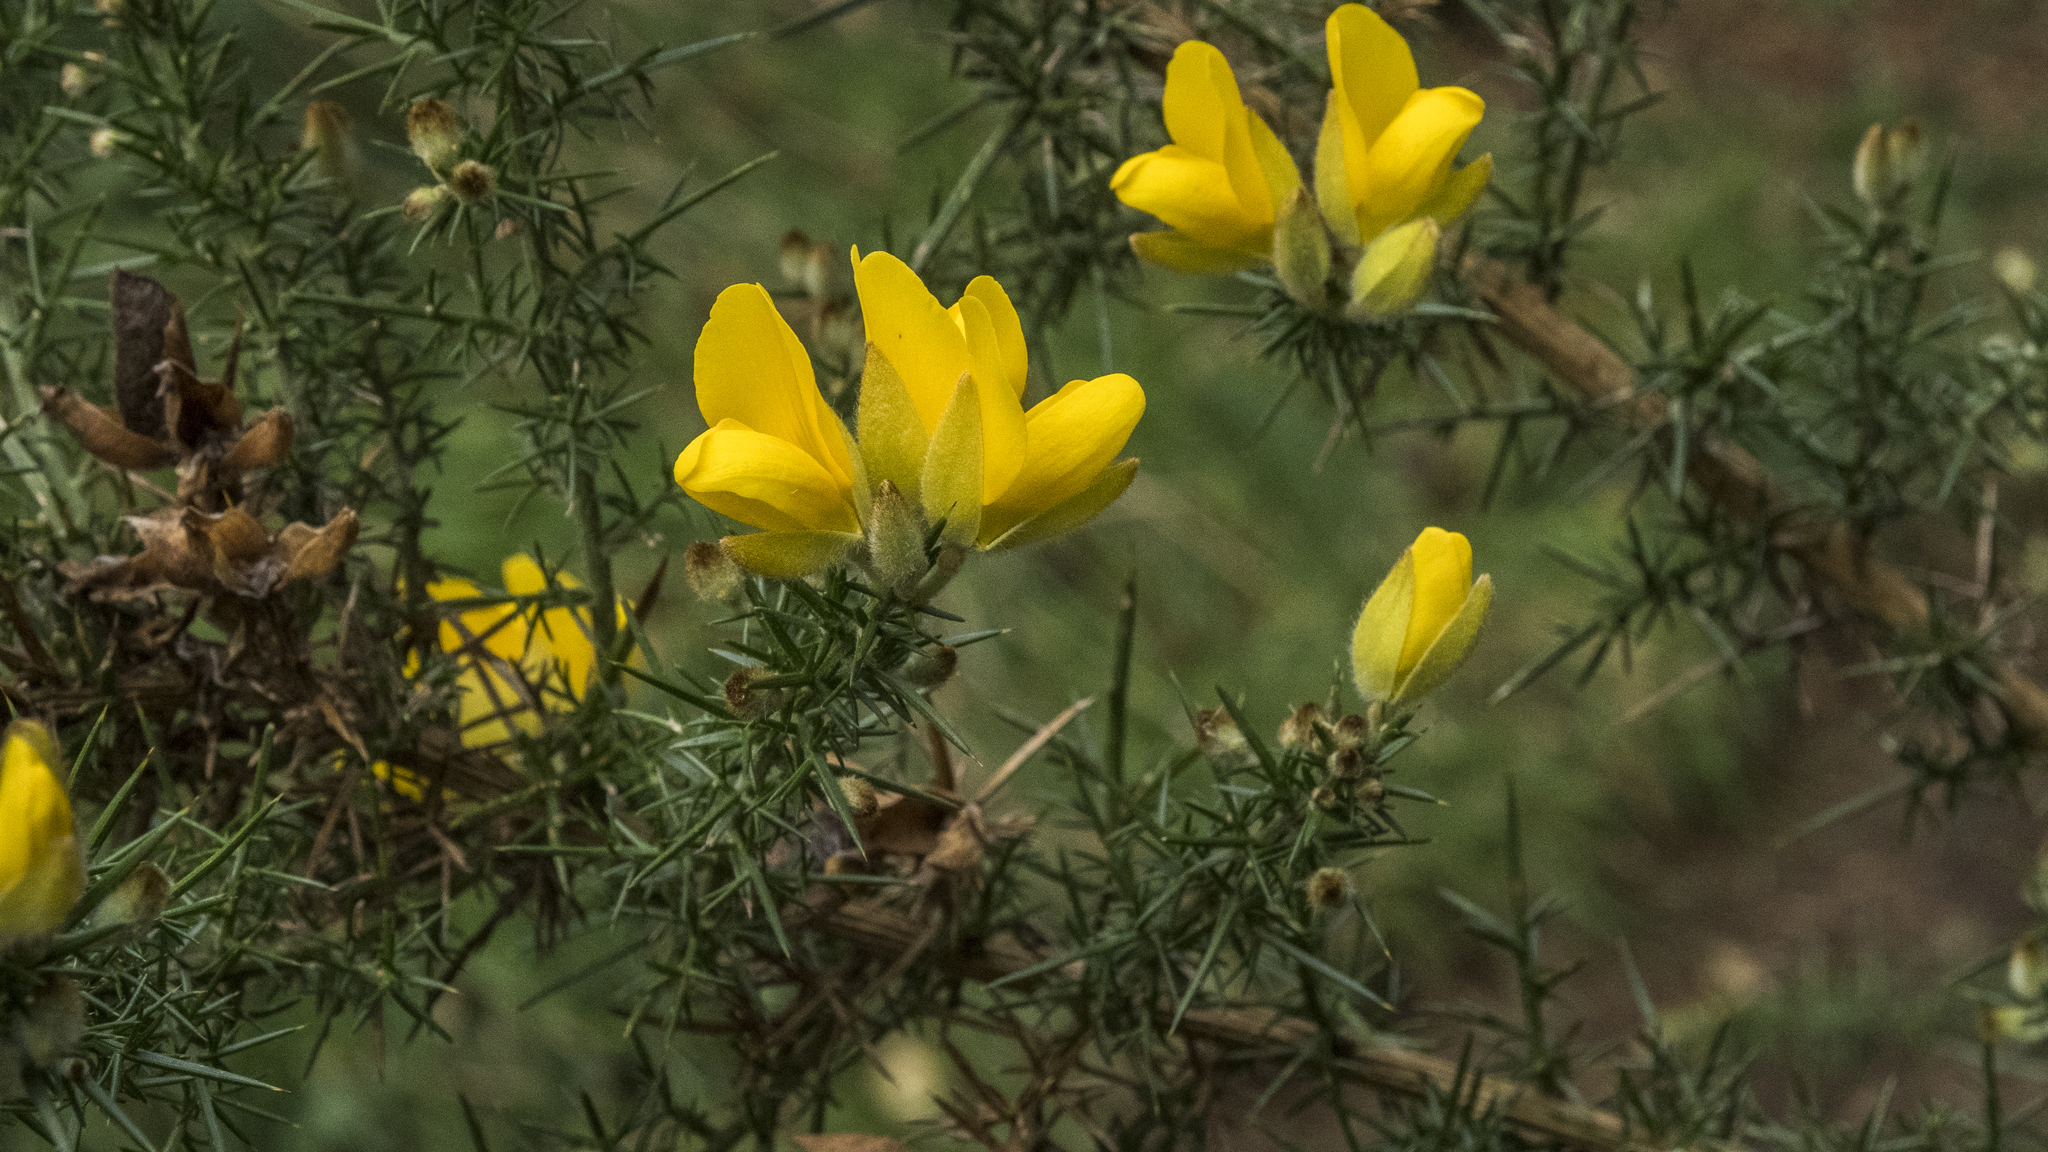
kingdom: Plantae
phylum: Tracheophyta
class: Magnoliopsida
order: Fabales
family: Fabaceae
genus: Ulex
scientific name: Ulex europaeus
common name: Common gorse
